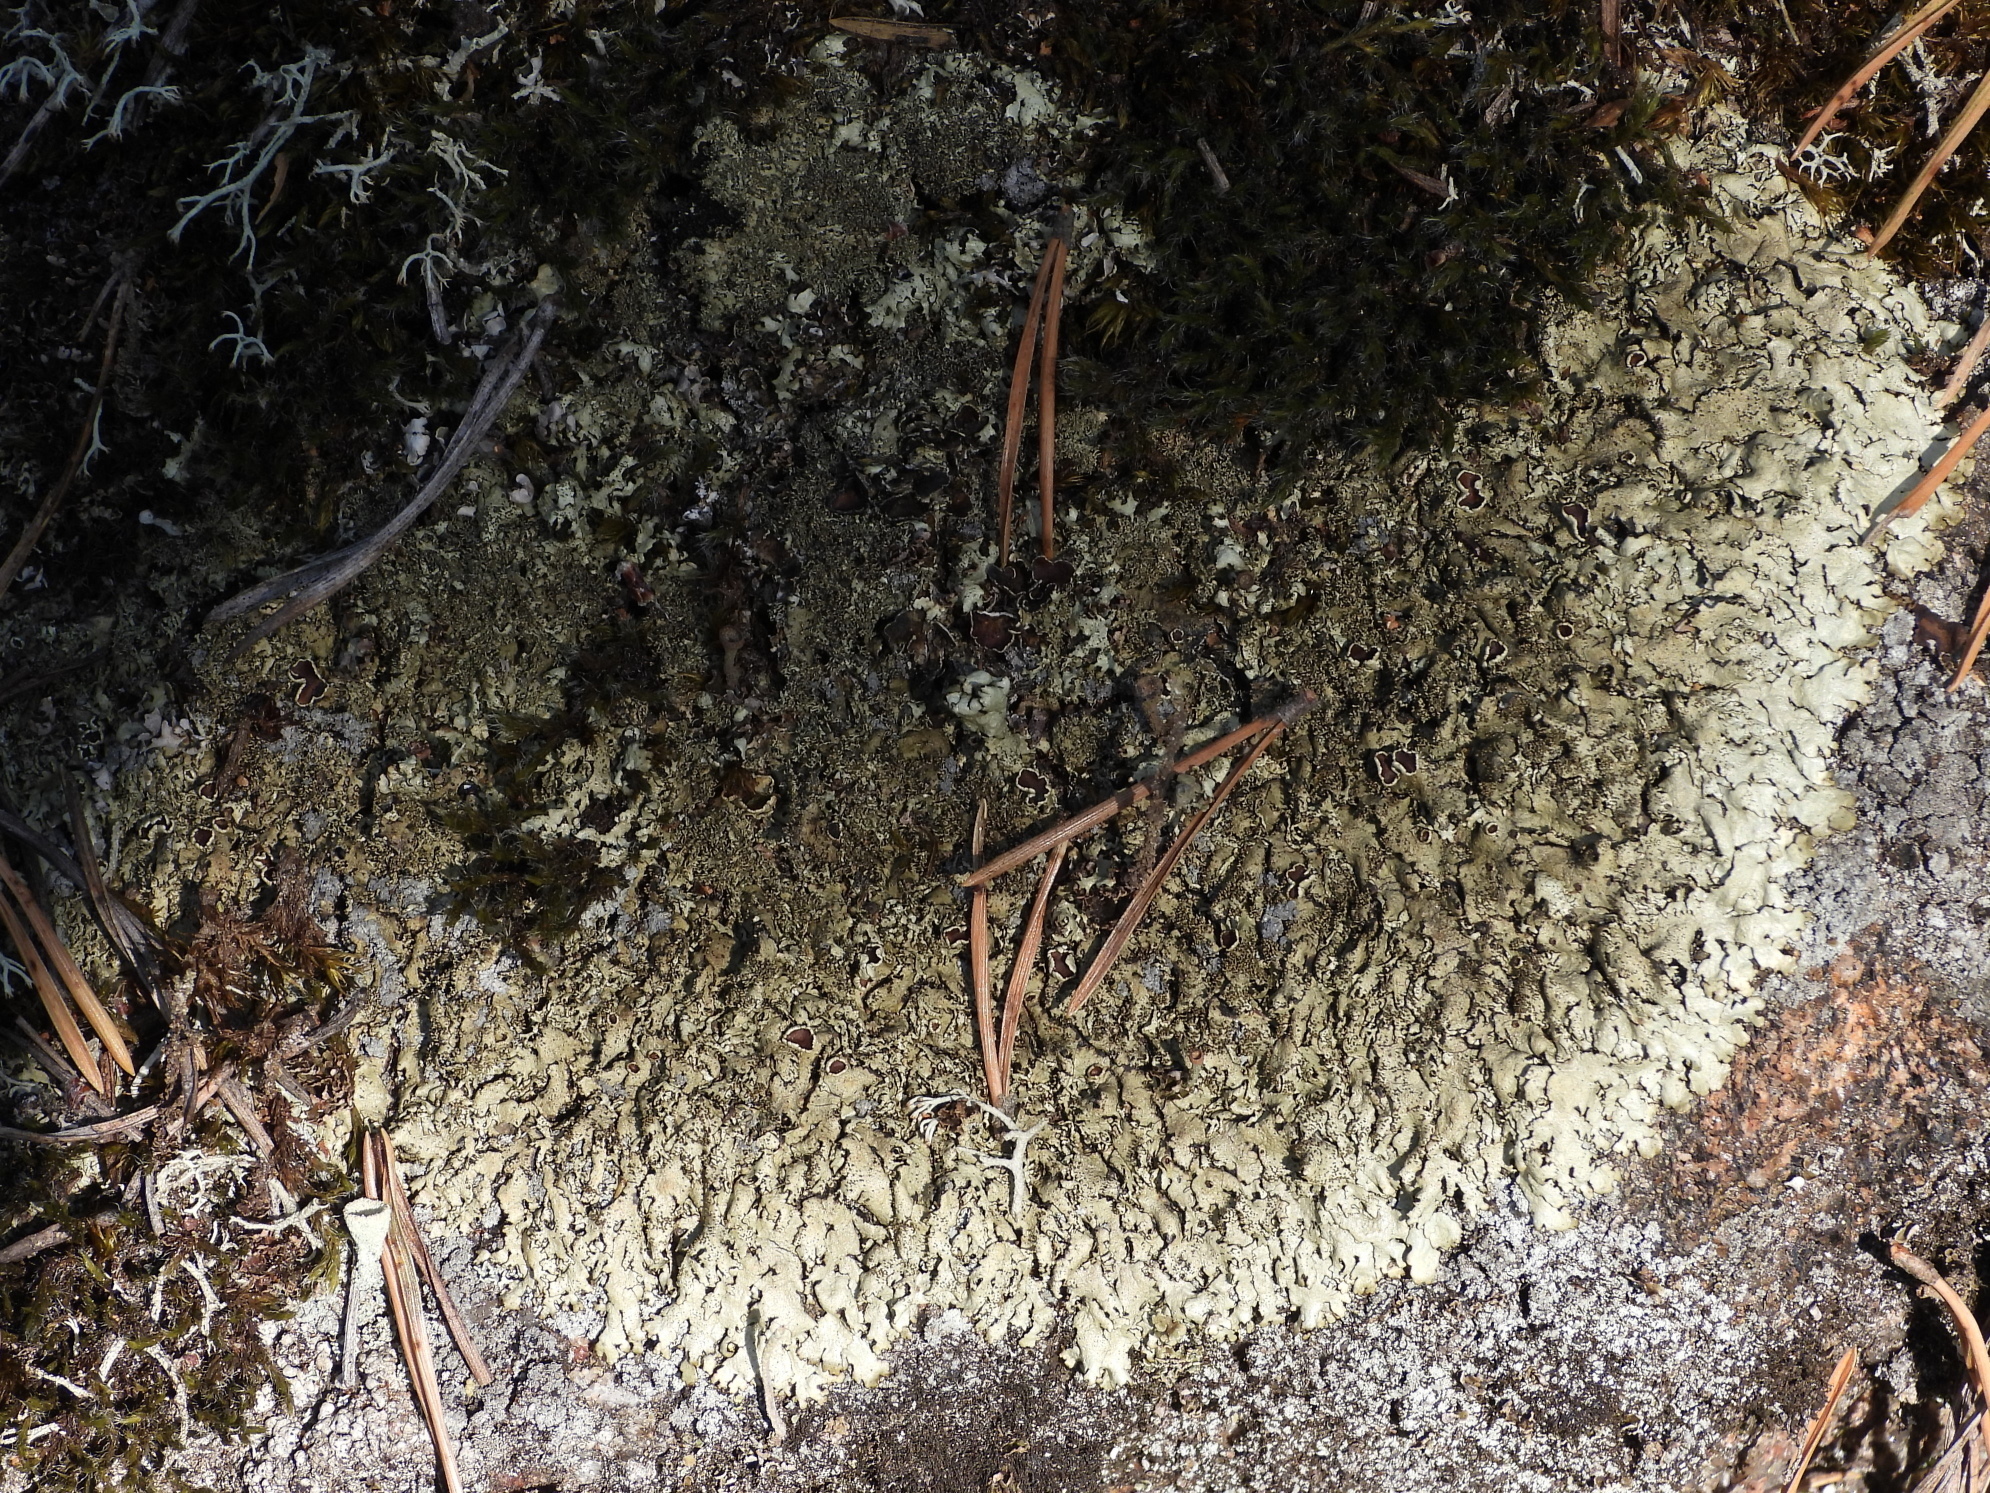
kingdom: Fungi
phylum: Ascomycota
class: Lecanoromycetes
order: Lecanorales
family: Parmeliaceae
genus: Xanthoparmelia
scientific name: Xanthoparmelia conspersa
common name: Peppered rock shield
